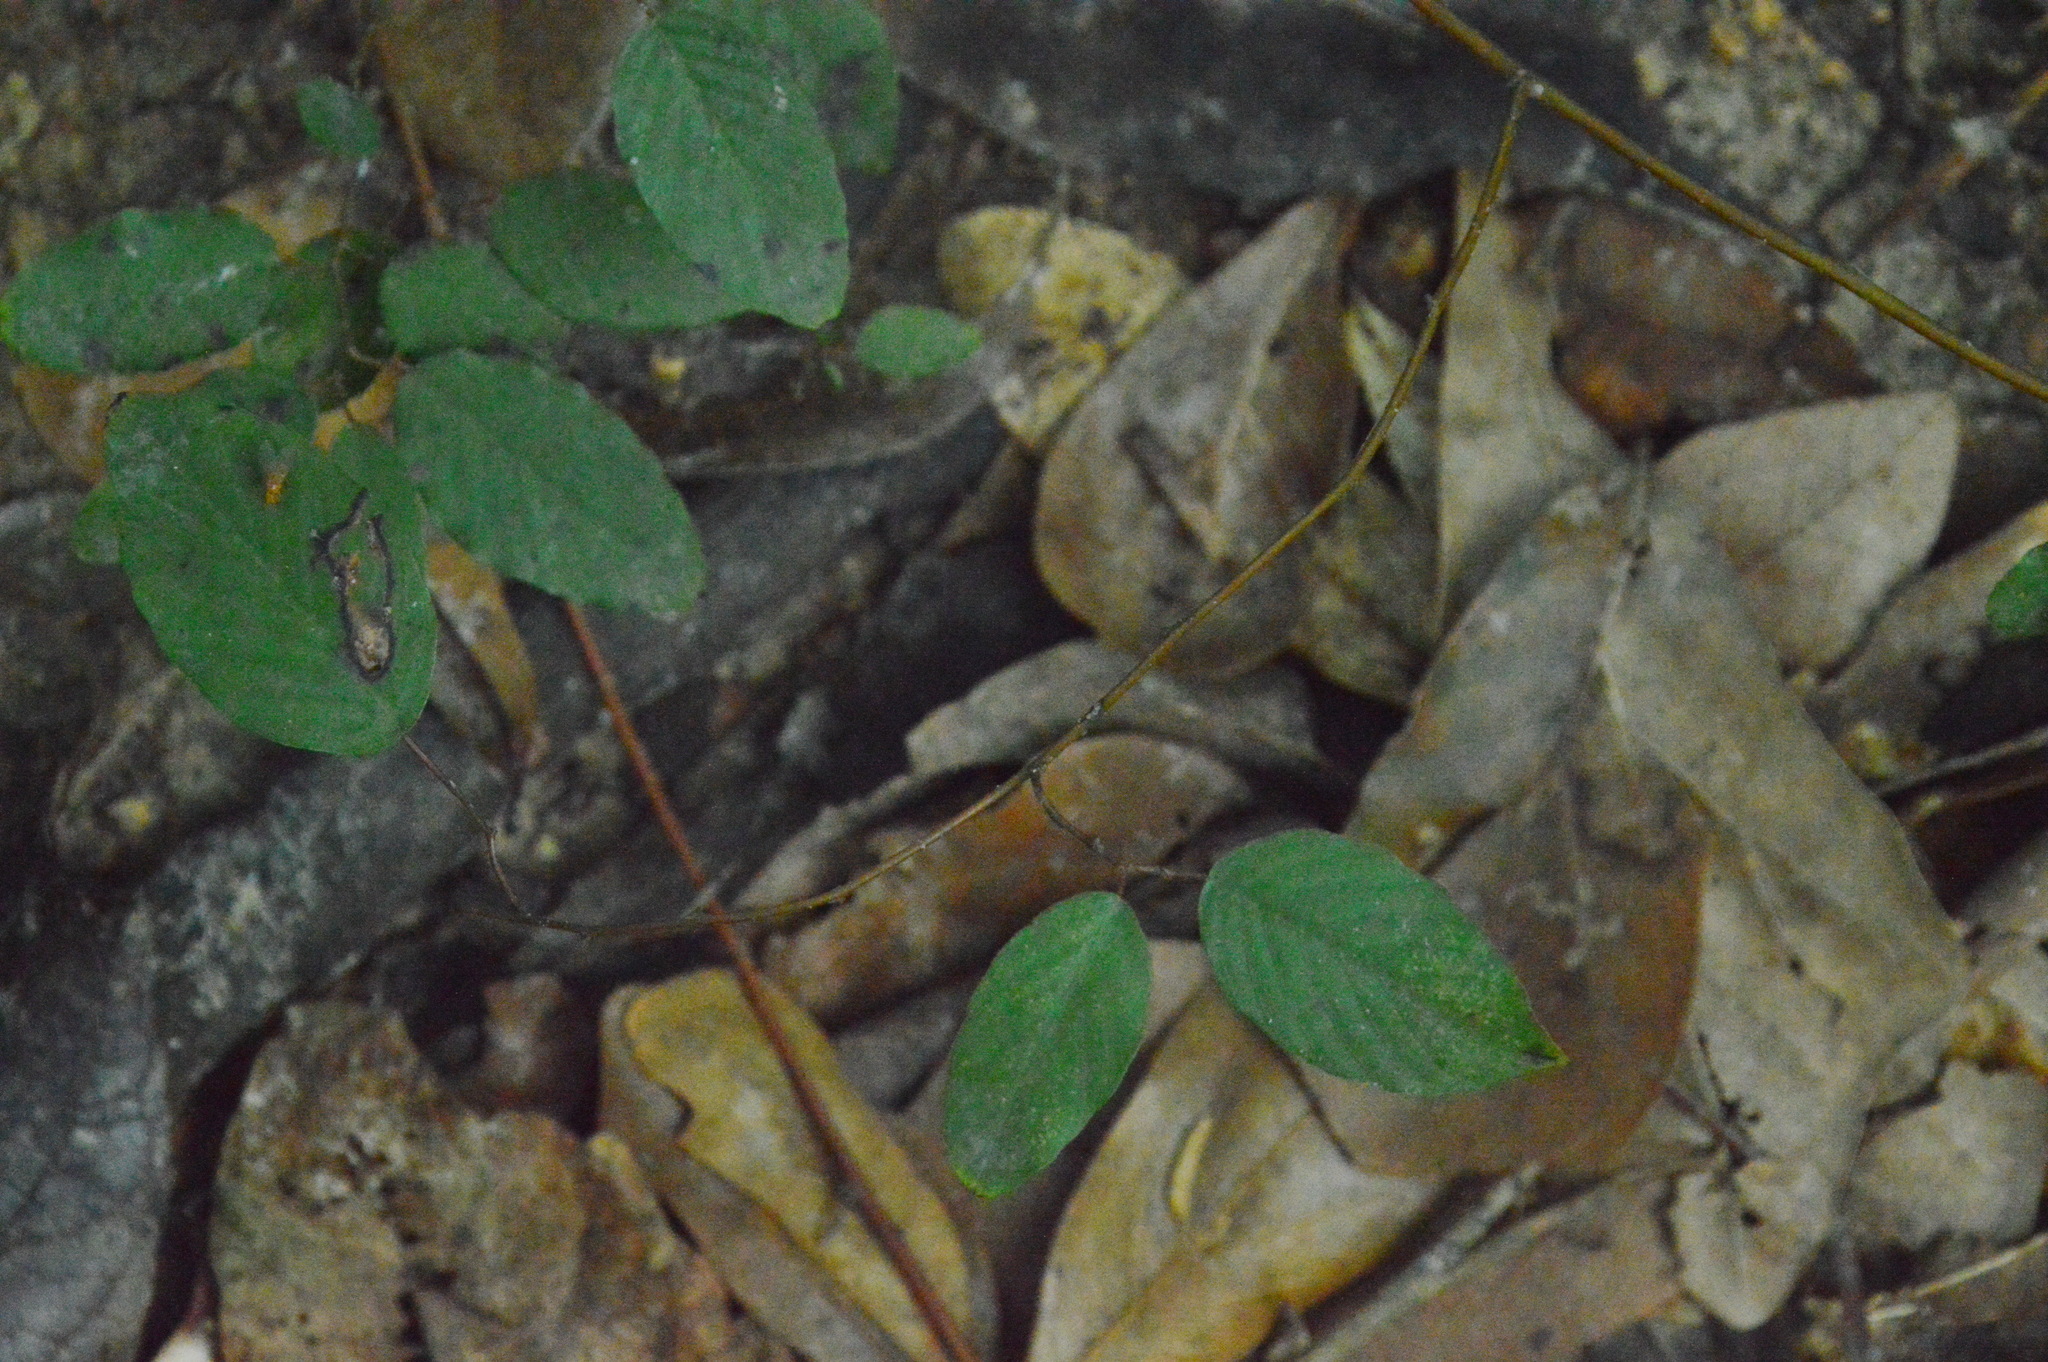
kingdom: Plantae
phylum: Tracheophyta
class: Magnoliopsida
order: Rosales
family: Rhamnaceae
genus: Berchemia
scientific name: Berchemia scandens
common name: Supplejack
